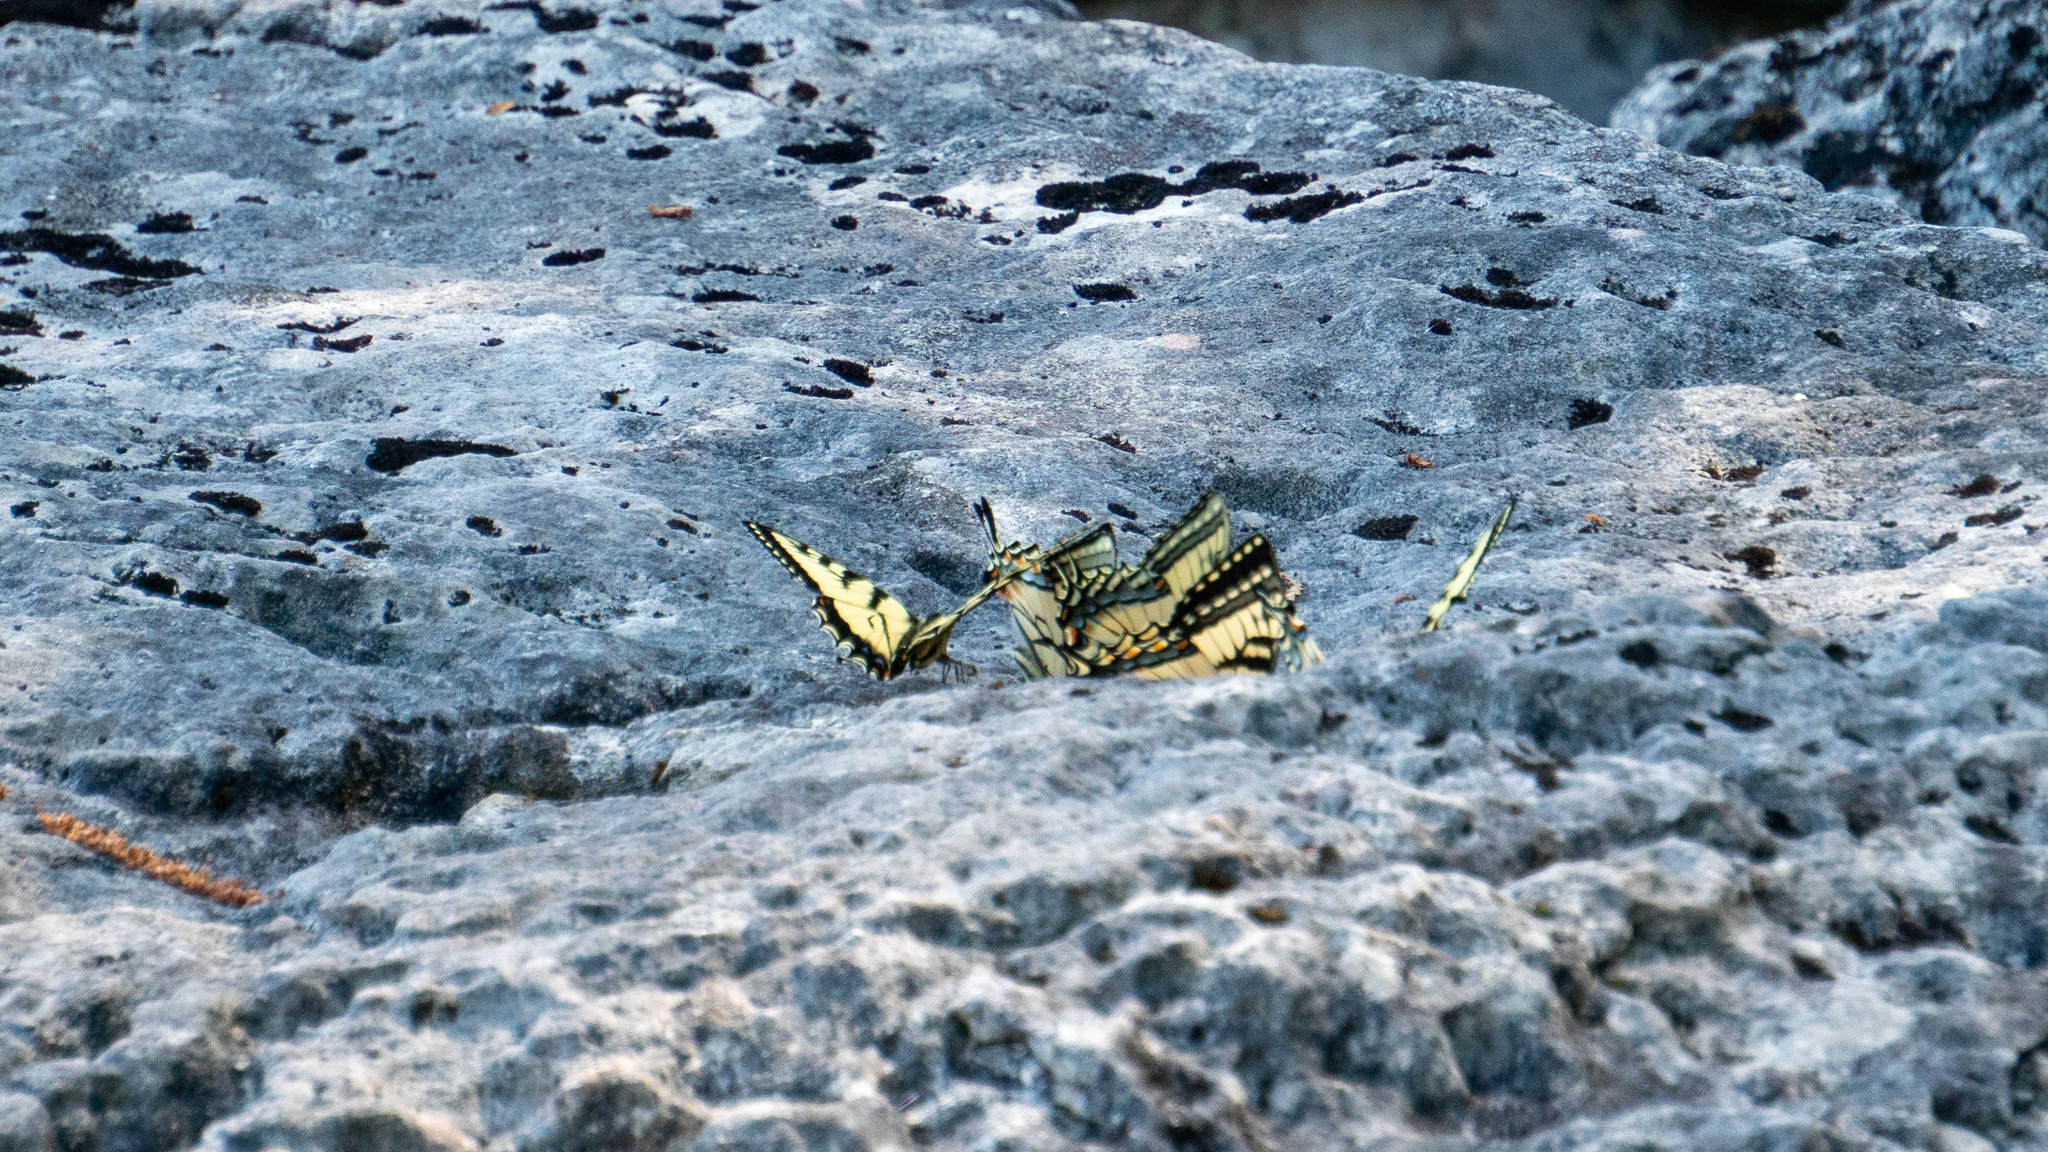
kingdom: Animalia
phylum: Arthropoda
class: Insecta
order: Lepidoptera
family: Papilionidae
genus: Papilio
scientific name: Papilio canadensis
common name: Canadian tiger swallowtail
